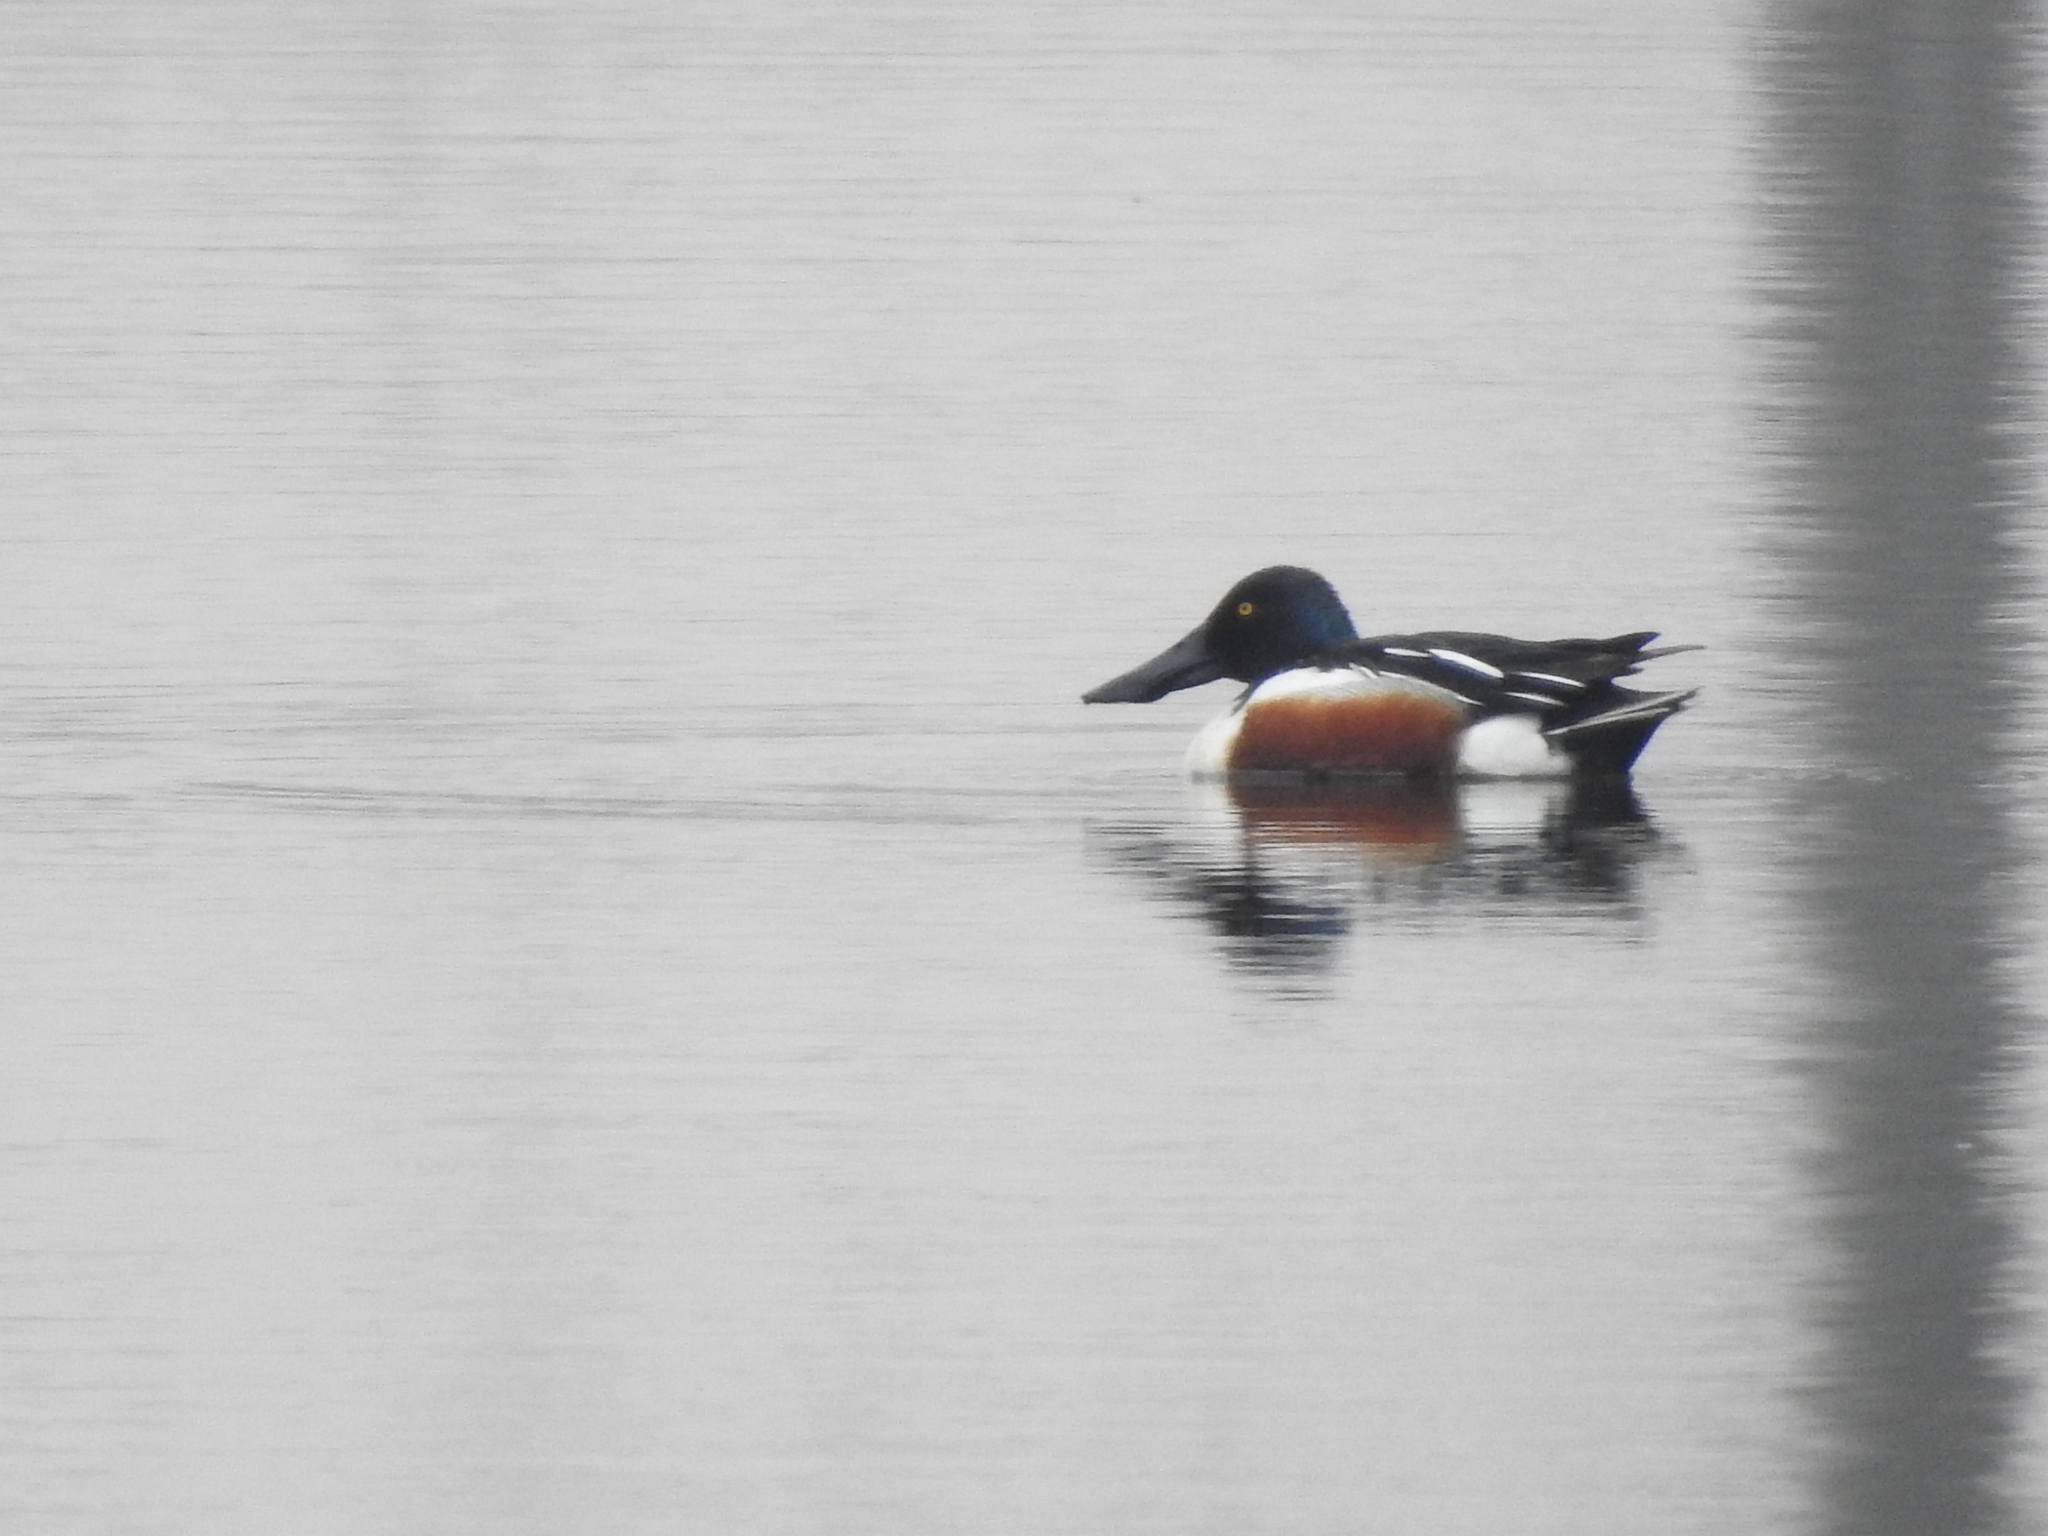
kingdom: Animalia
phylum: Chordata
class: Aves
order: Anseriformes
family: Anatidae
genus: Spatula
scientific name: Spatula clypeata
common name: Northern shoveler
